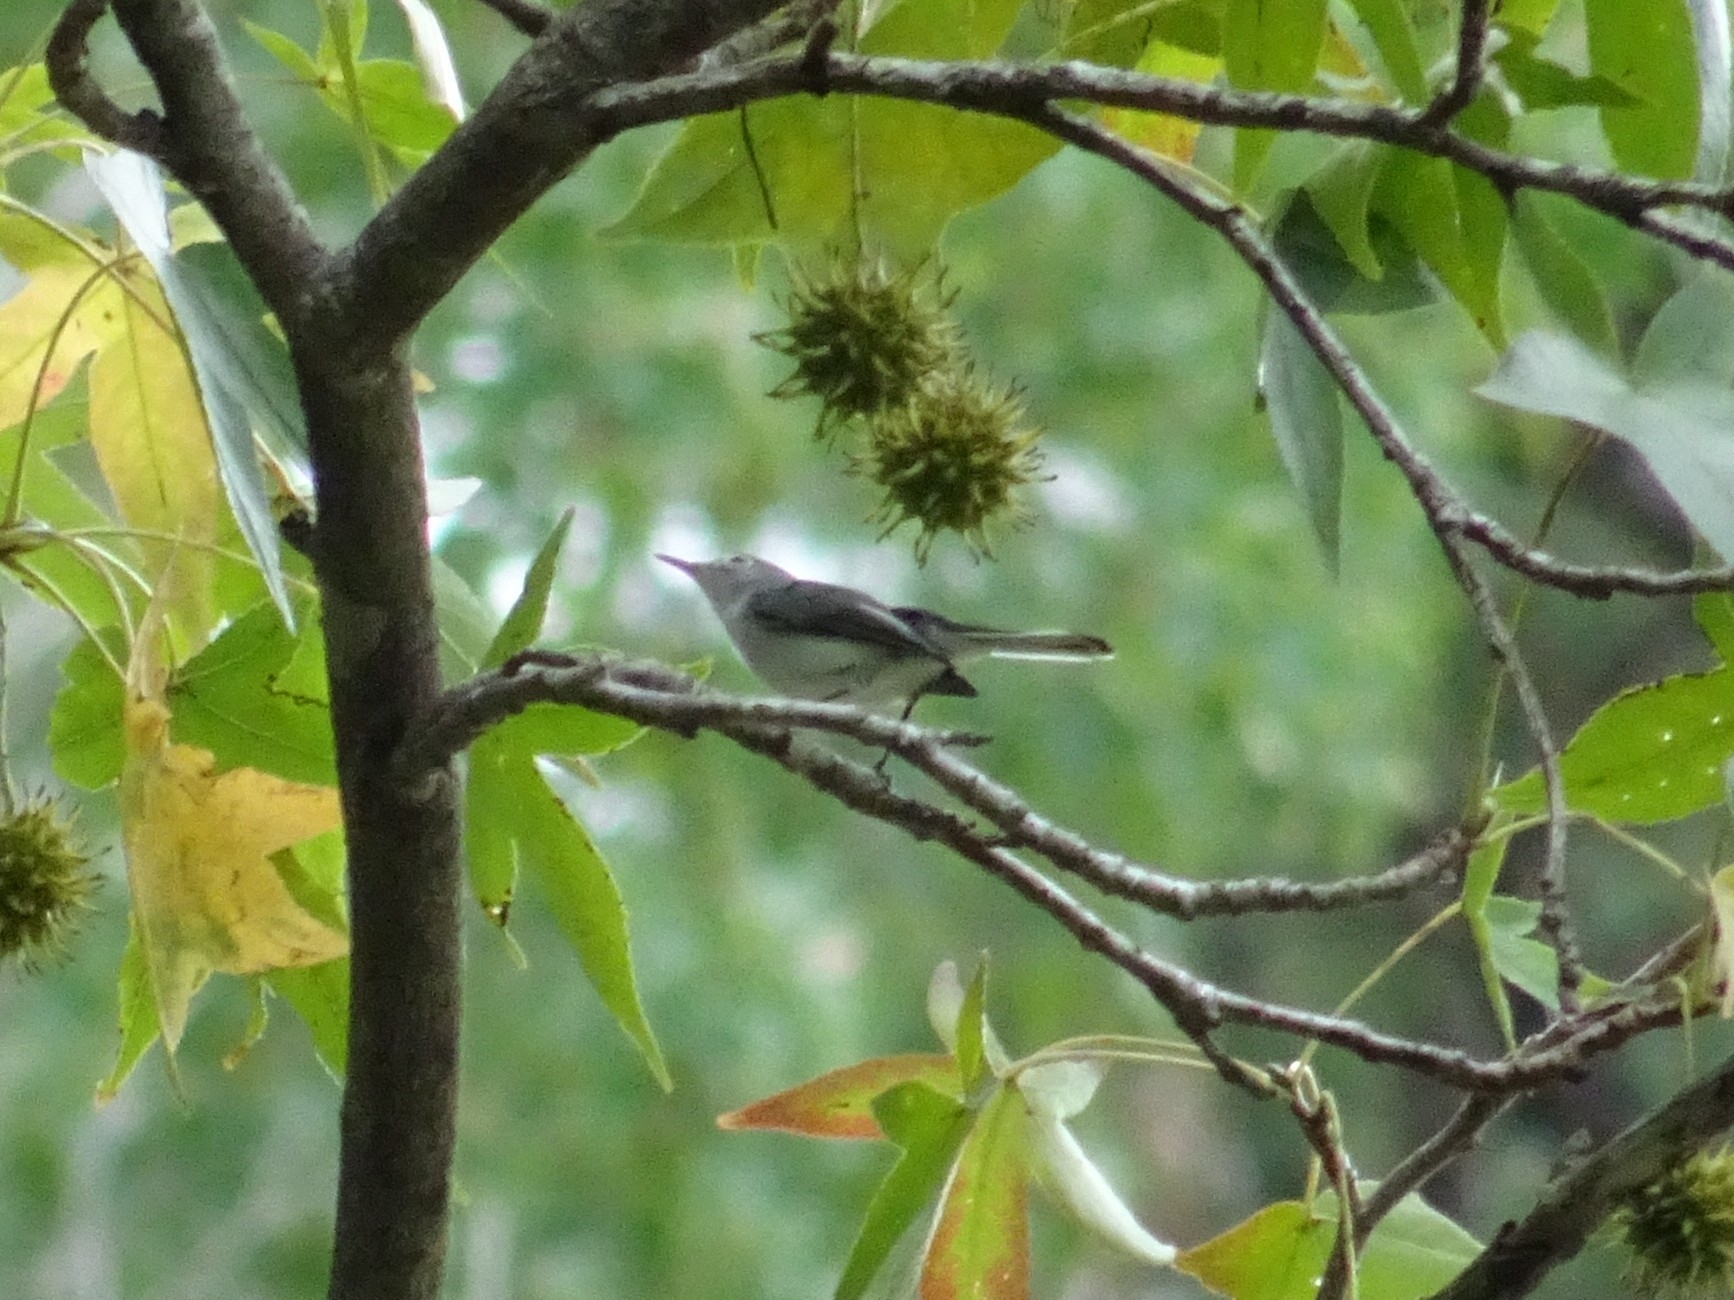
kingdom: Animalia
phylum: Chordata
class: Aves
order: Passeriformes
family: Polioptilidae
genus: Polioptila
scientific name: Polioptila caerulea
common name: Blue-gray gnatcatcher
